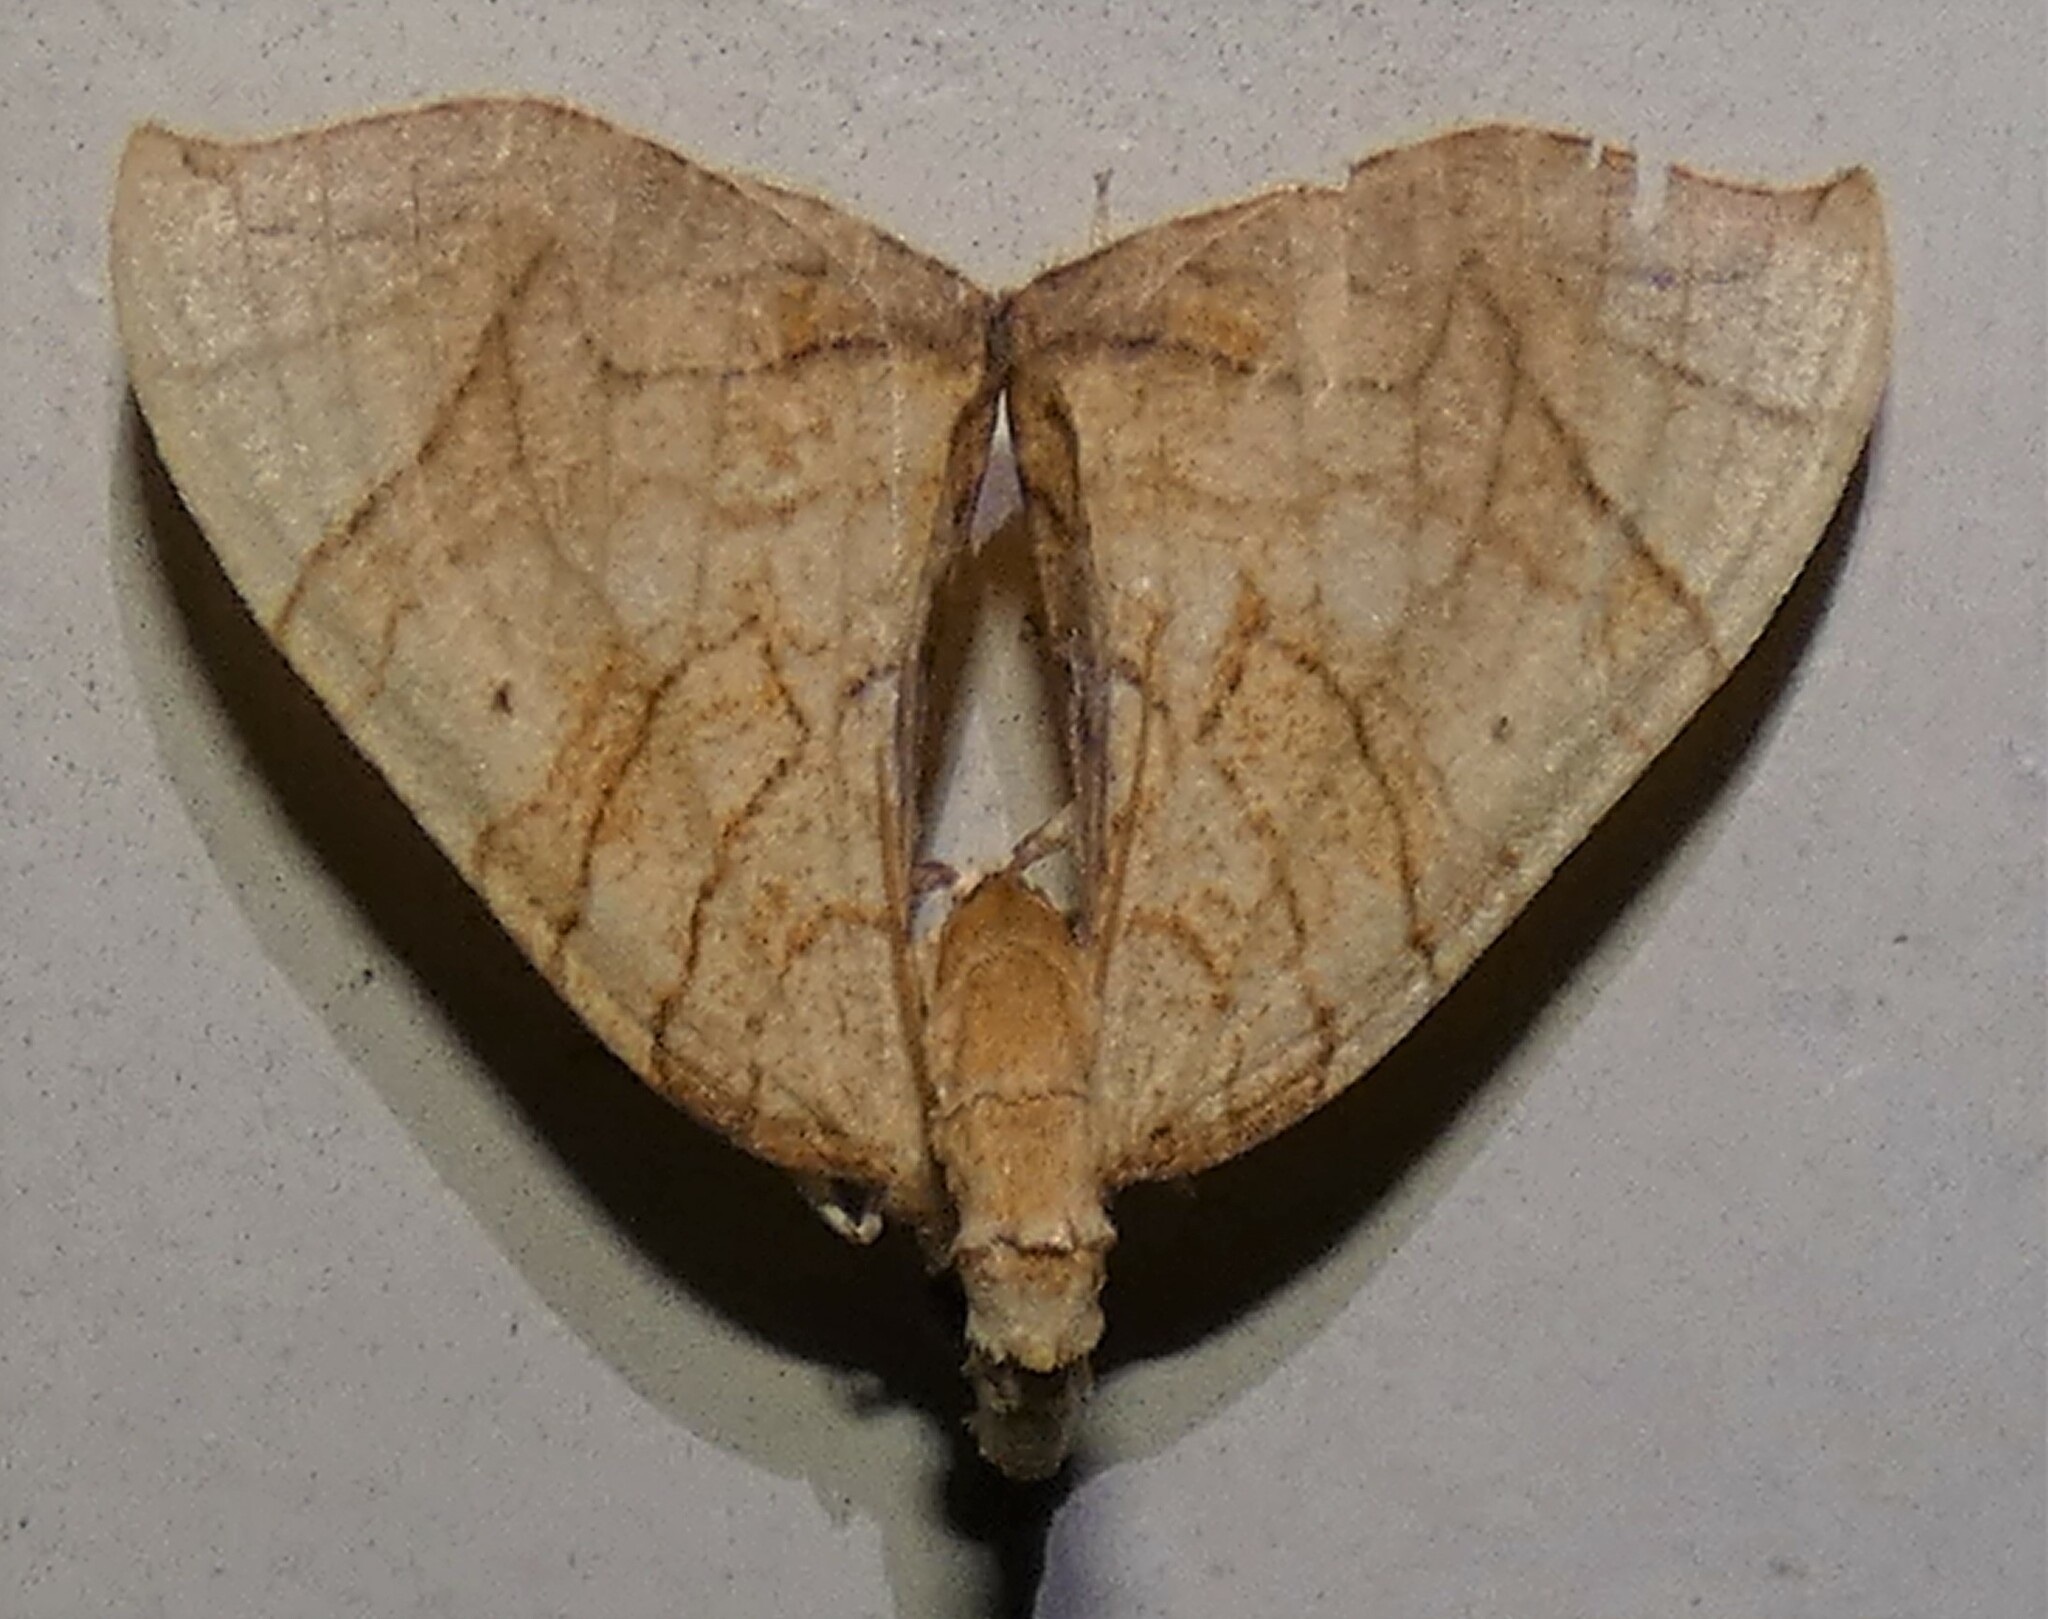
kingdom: Animalia
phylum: Arthropoda
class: Insecta
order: Lepidoptera
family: Geometridae
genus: Eulithis
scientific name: Eulithis
